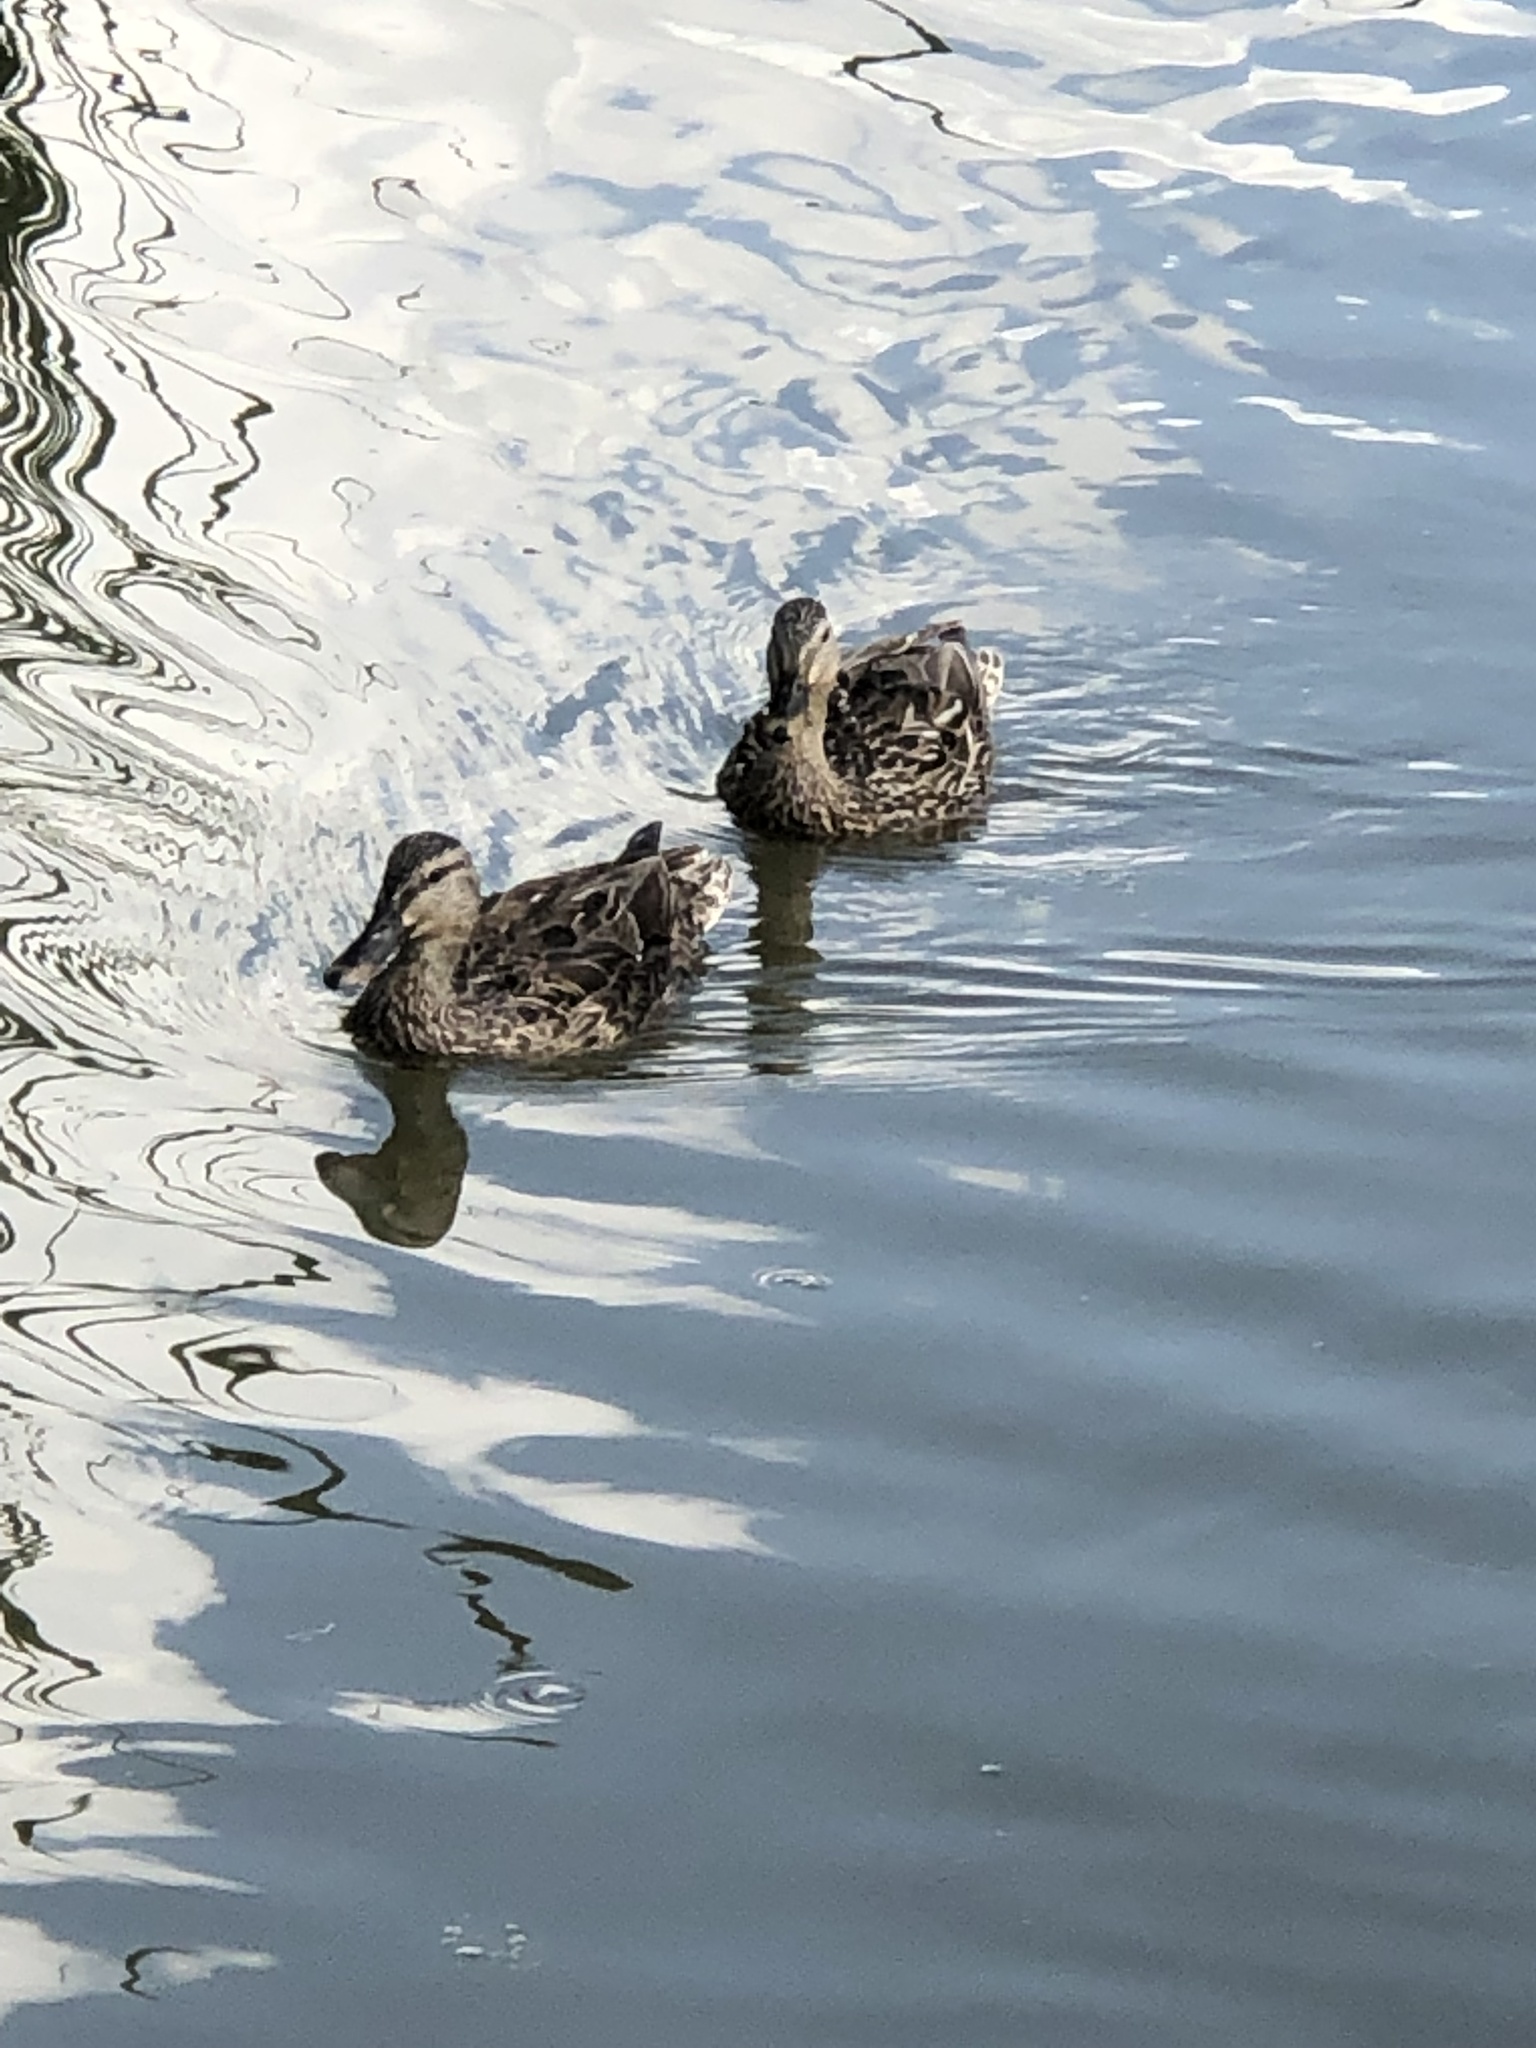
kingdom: Animalia
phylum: Chordata
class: Aves
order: Anseriformes
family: Anatidae
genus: Anas
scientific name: Anas platyrhynchos
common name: Mallard
